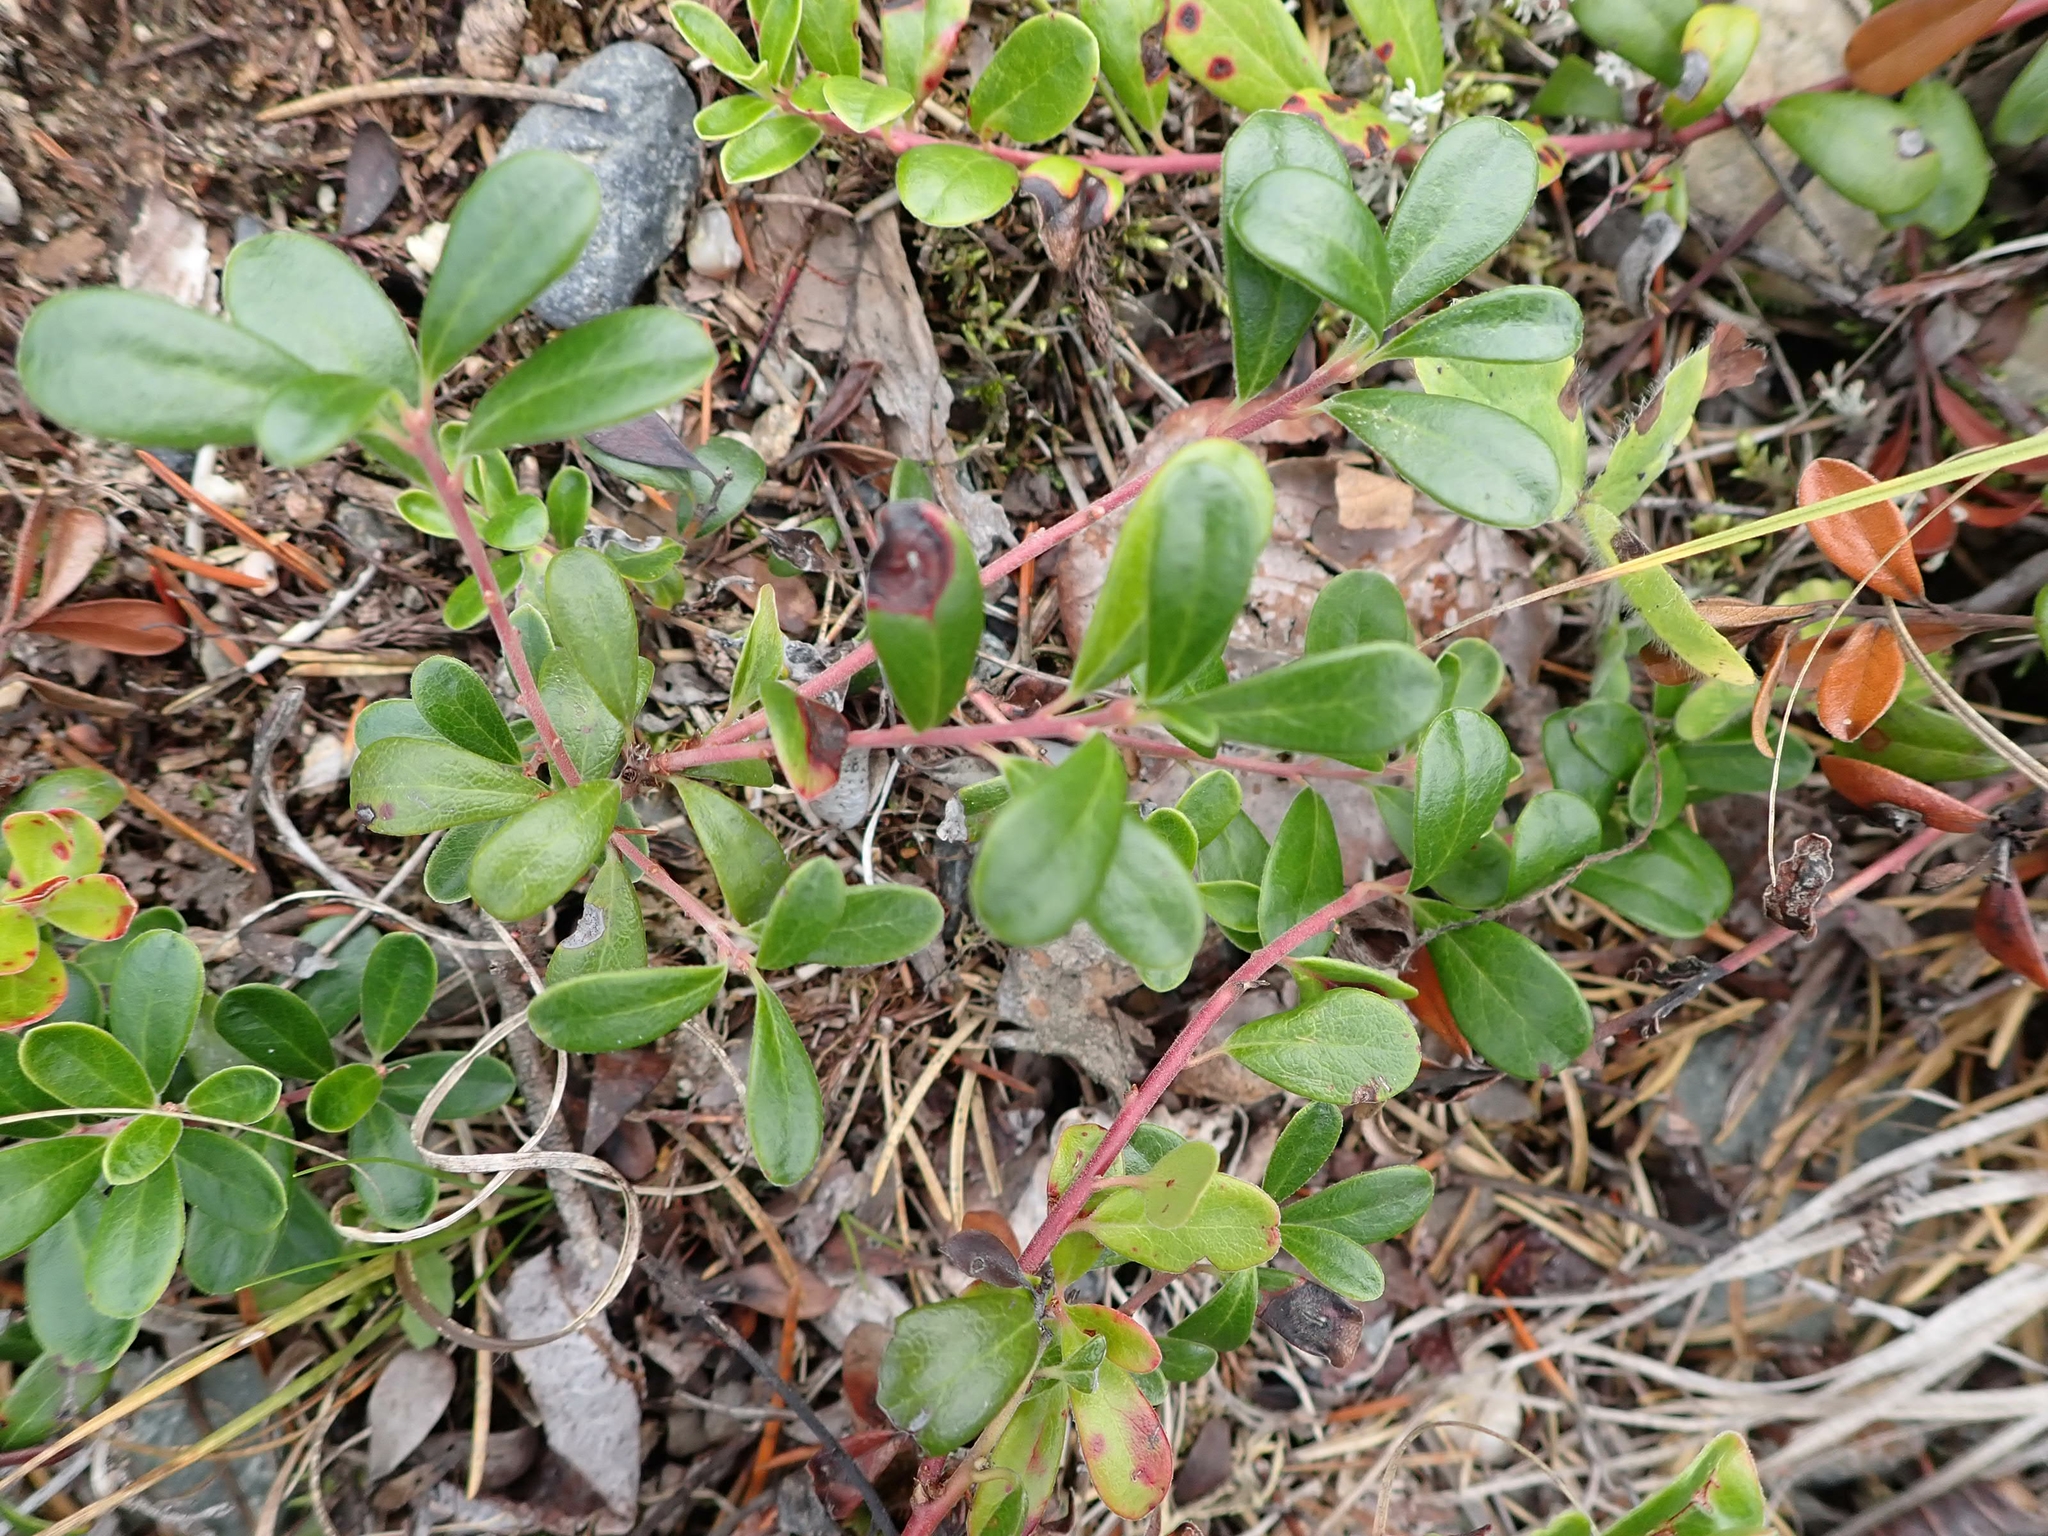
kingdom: Plantae
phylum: Tracheophyta
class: Magnoliopsida
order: Ericales
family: Ericaceae
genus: Arctostaphylos
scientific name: Arctostaphylos uva-ursi
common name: Bearberry
